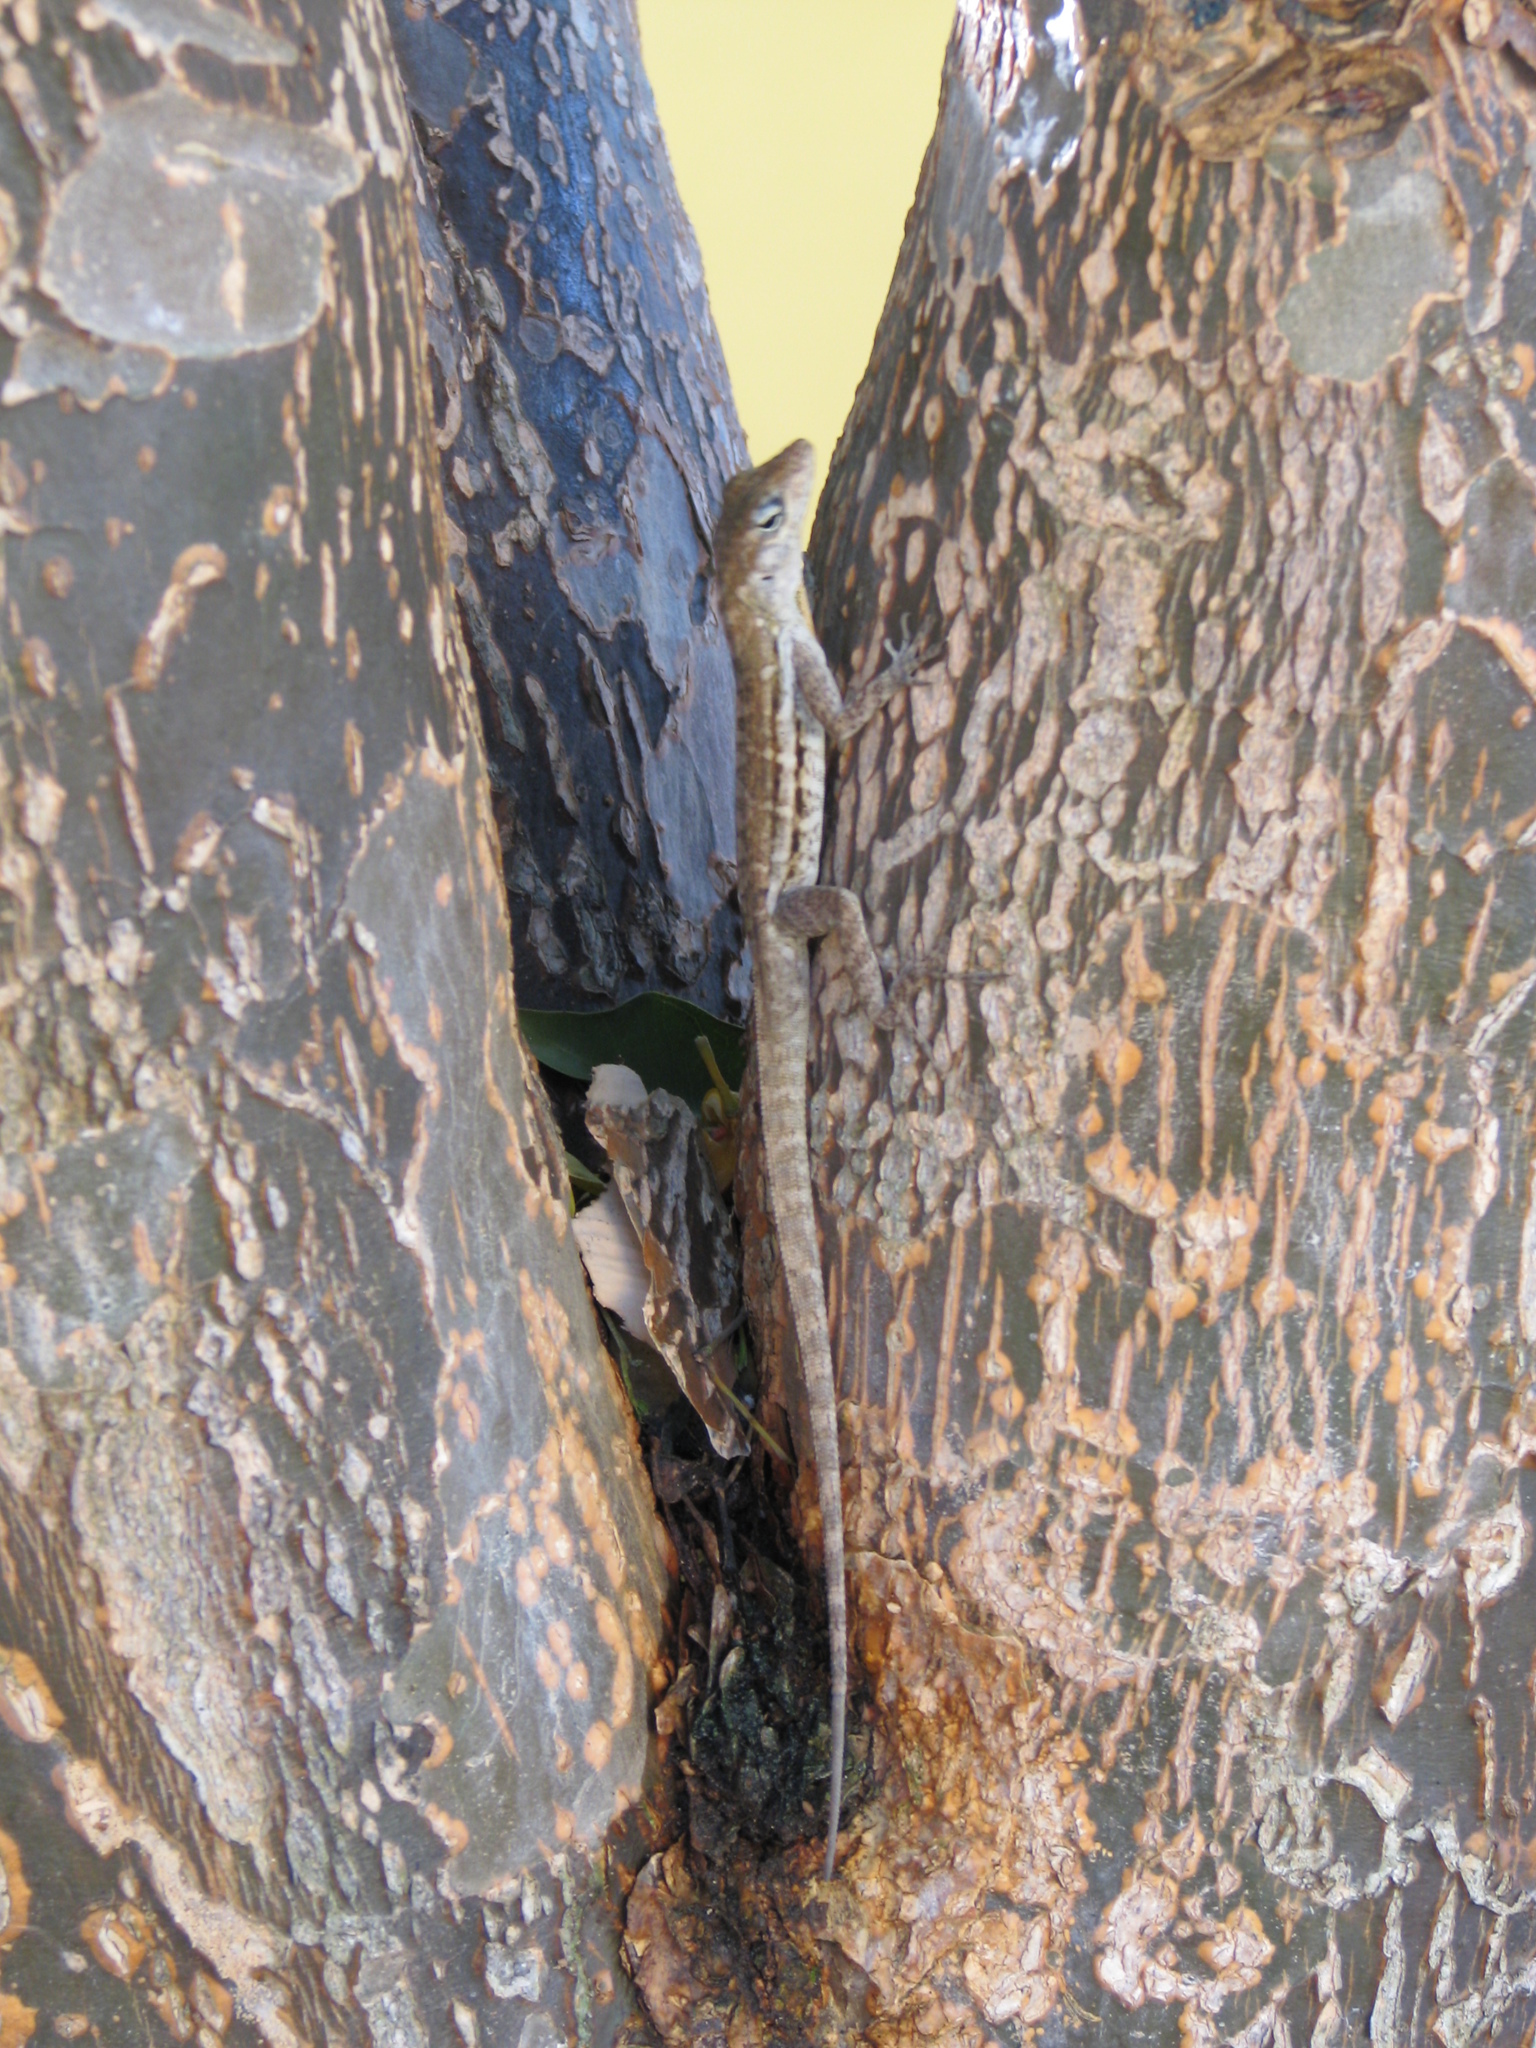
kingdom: Animalia
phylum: Chordata
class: Squamata
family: Dactyloidae
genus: Anolis
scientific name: Anolis lineatus
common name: Striped anole
